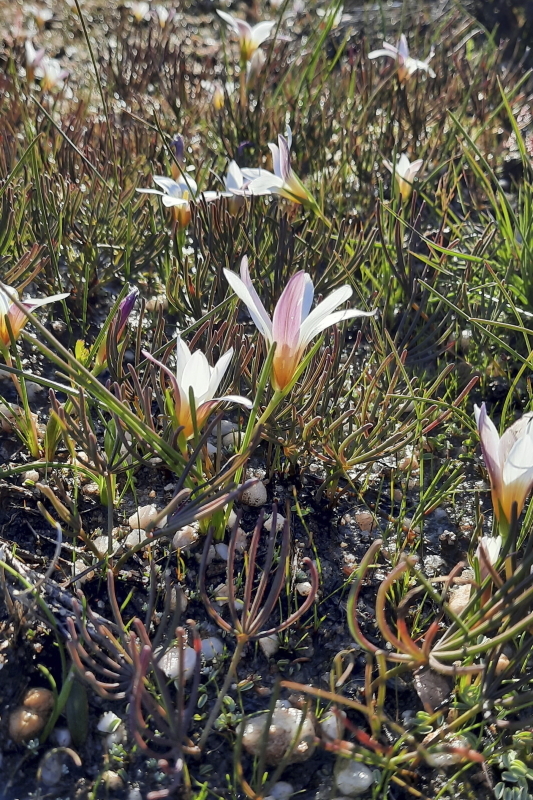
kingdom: Plantae
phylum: Tracheophyta
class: Liliopsida
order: Asparagales
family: Iridaceae
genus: Romulea
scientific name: Romulea toximontana
